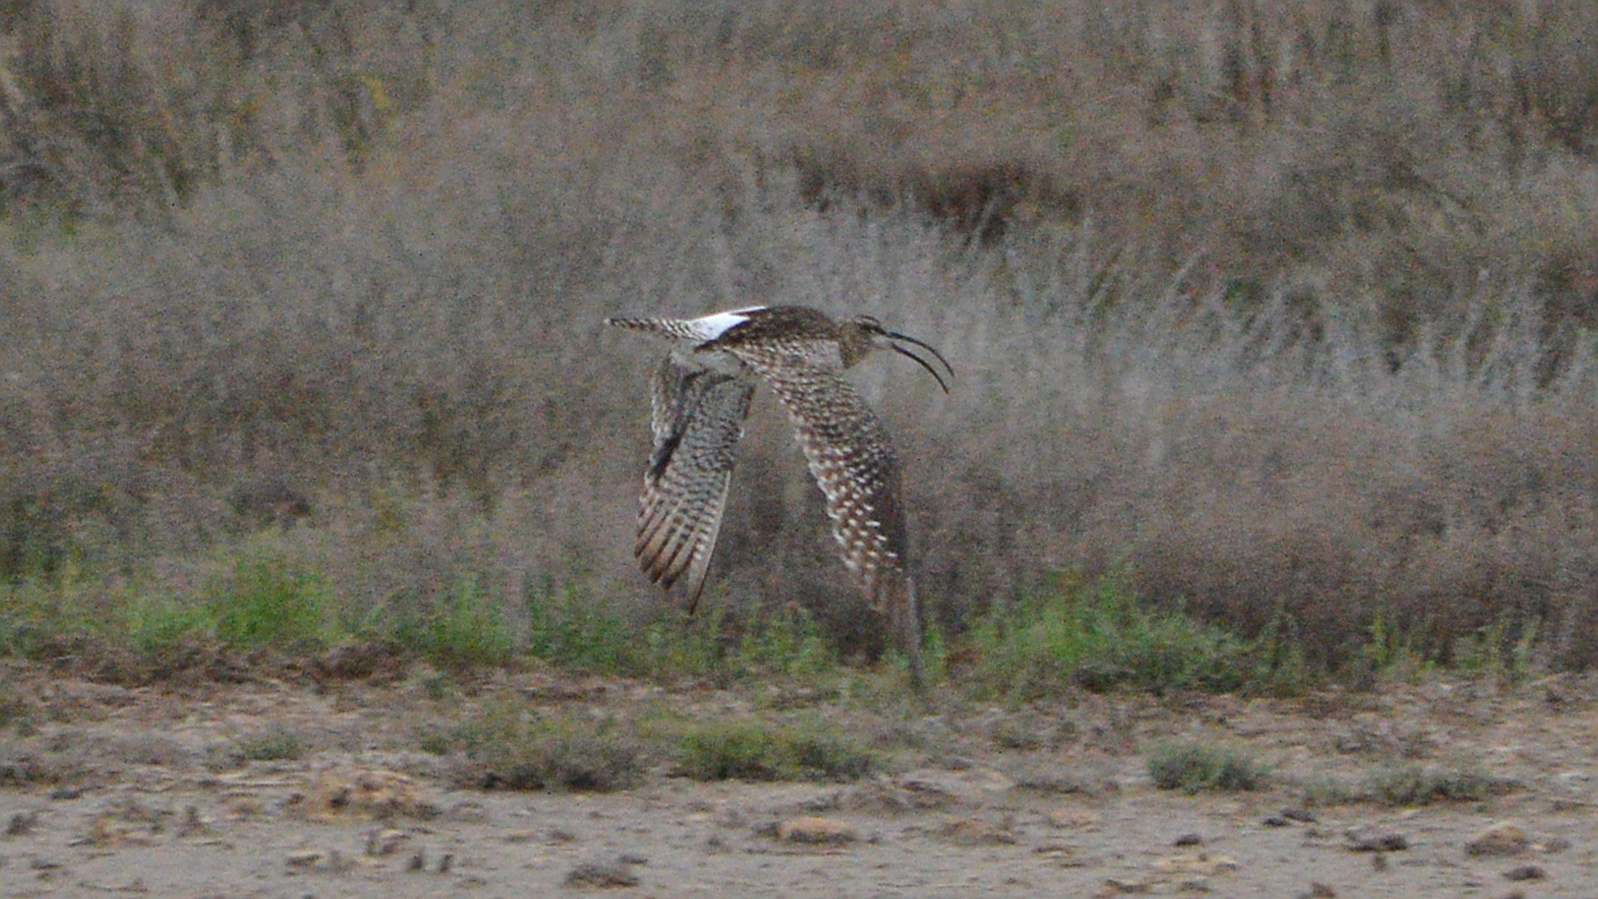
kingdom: Animalia
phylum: Chordata
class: Aves
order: Charadriiformes
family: Scolopacidae
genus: Numenius
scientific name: Numenius arquata
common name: Eurasian curlew
